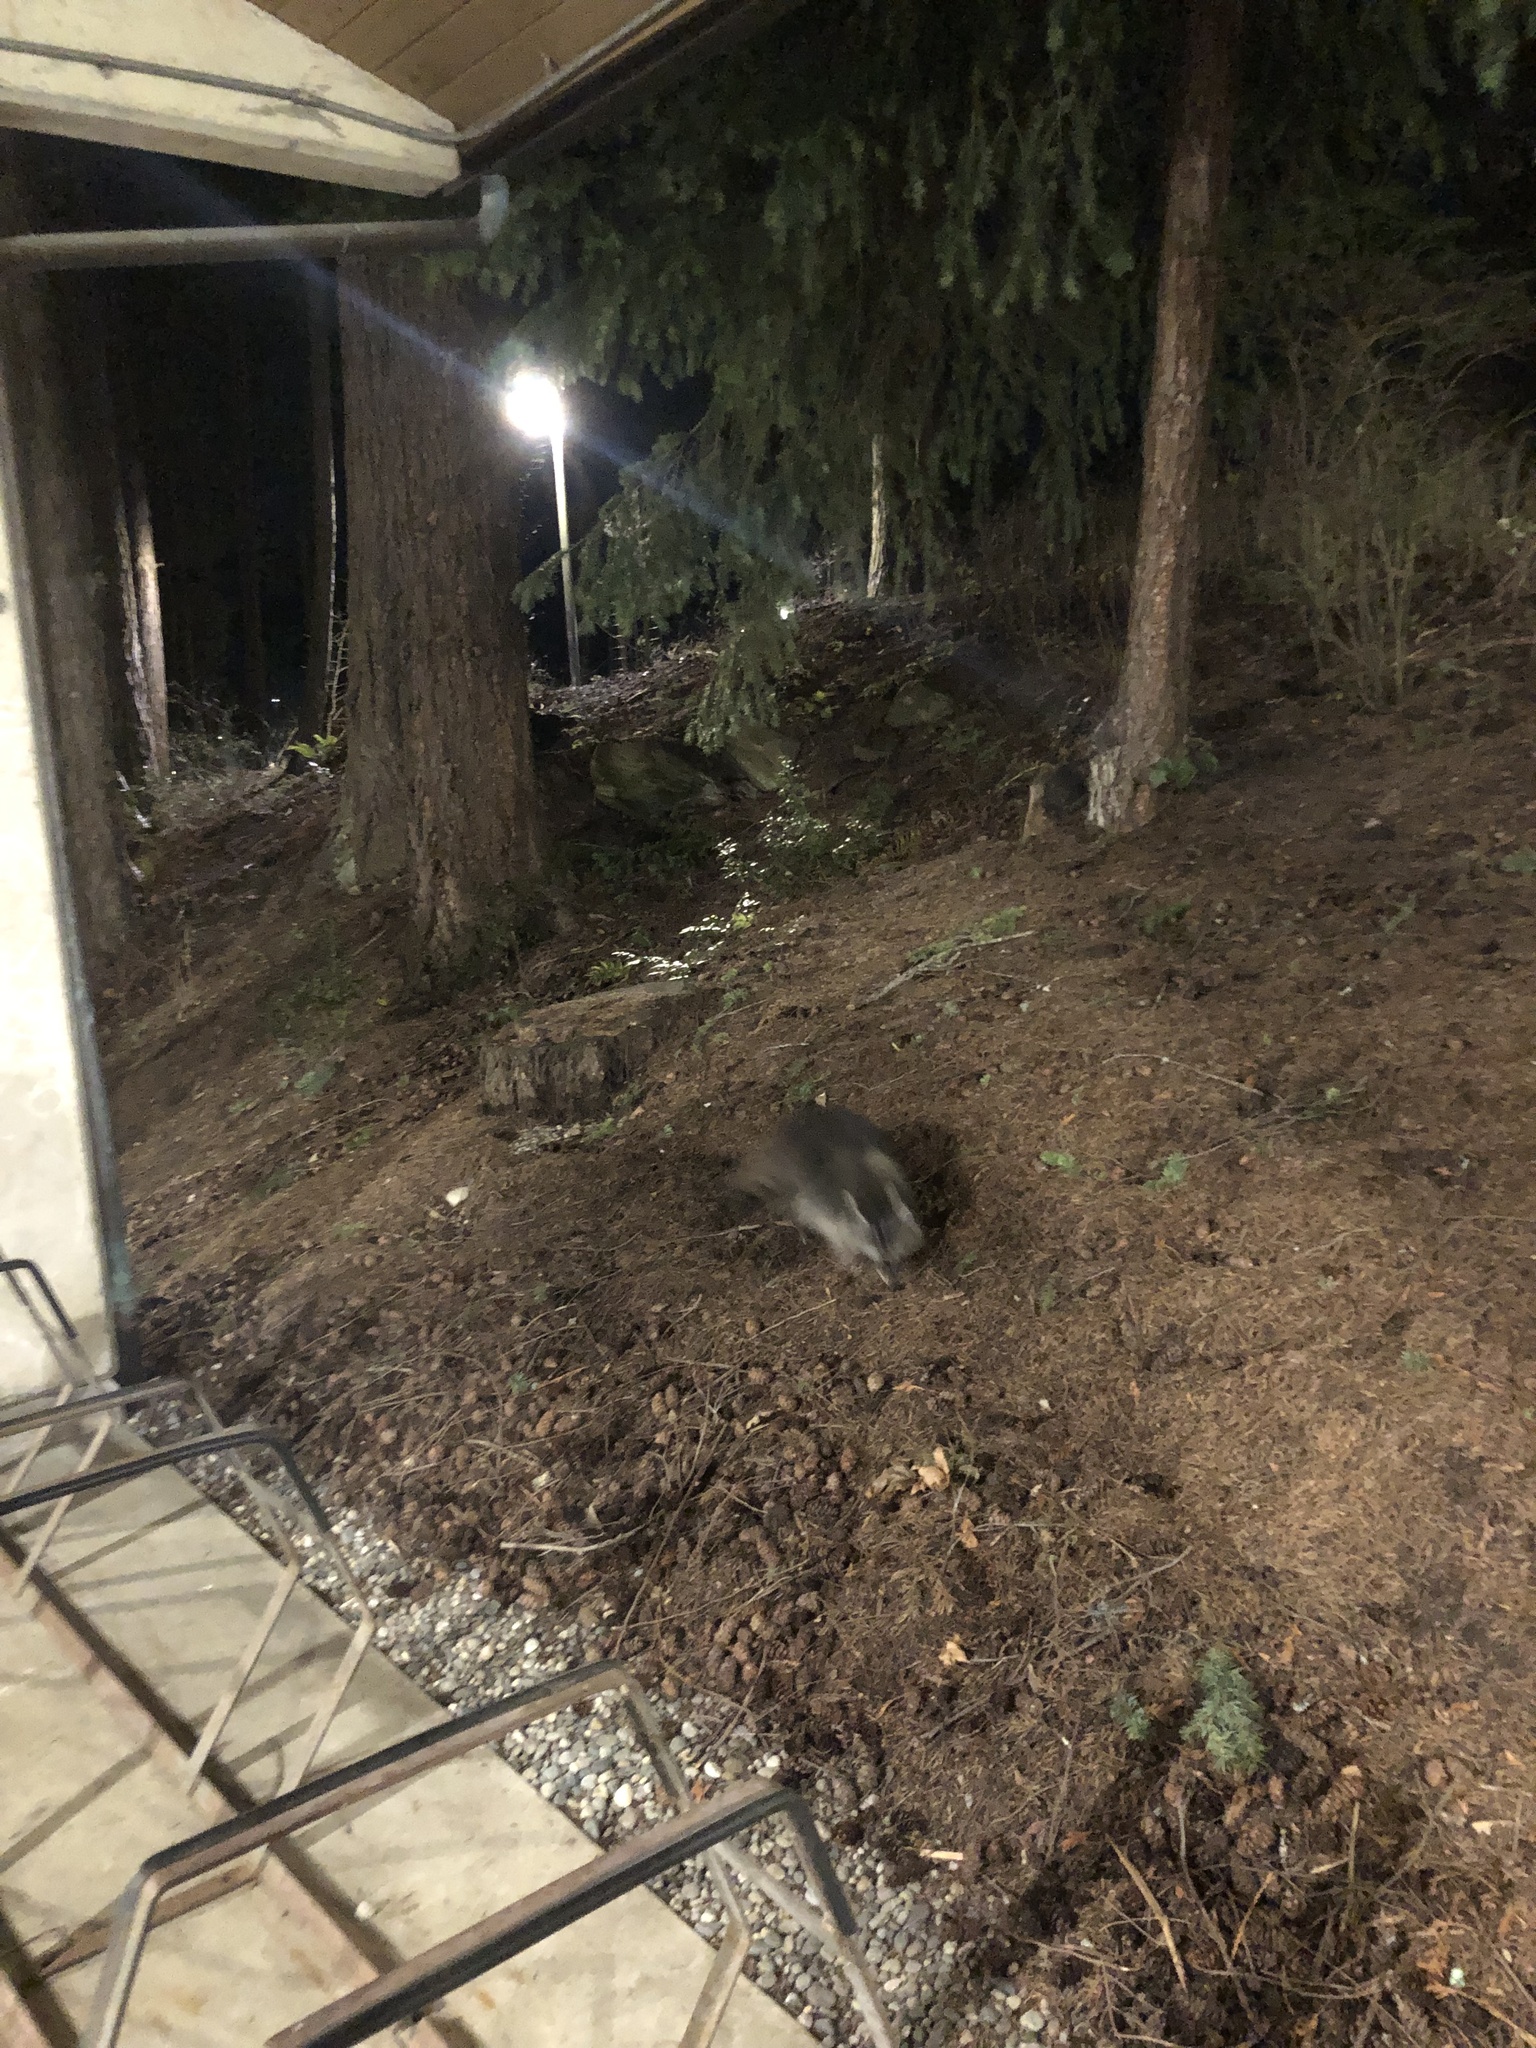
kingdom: Animalia
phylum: Chordata
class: Mammalia
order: Carnivora
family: Procyonidae
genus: Procyon
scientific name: Procyon lotor
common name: Raccoon
